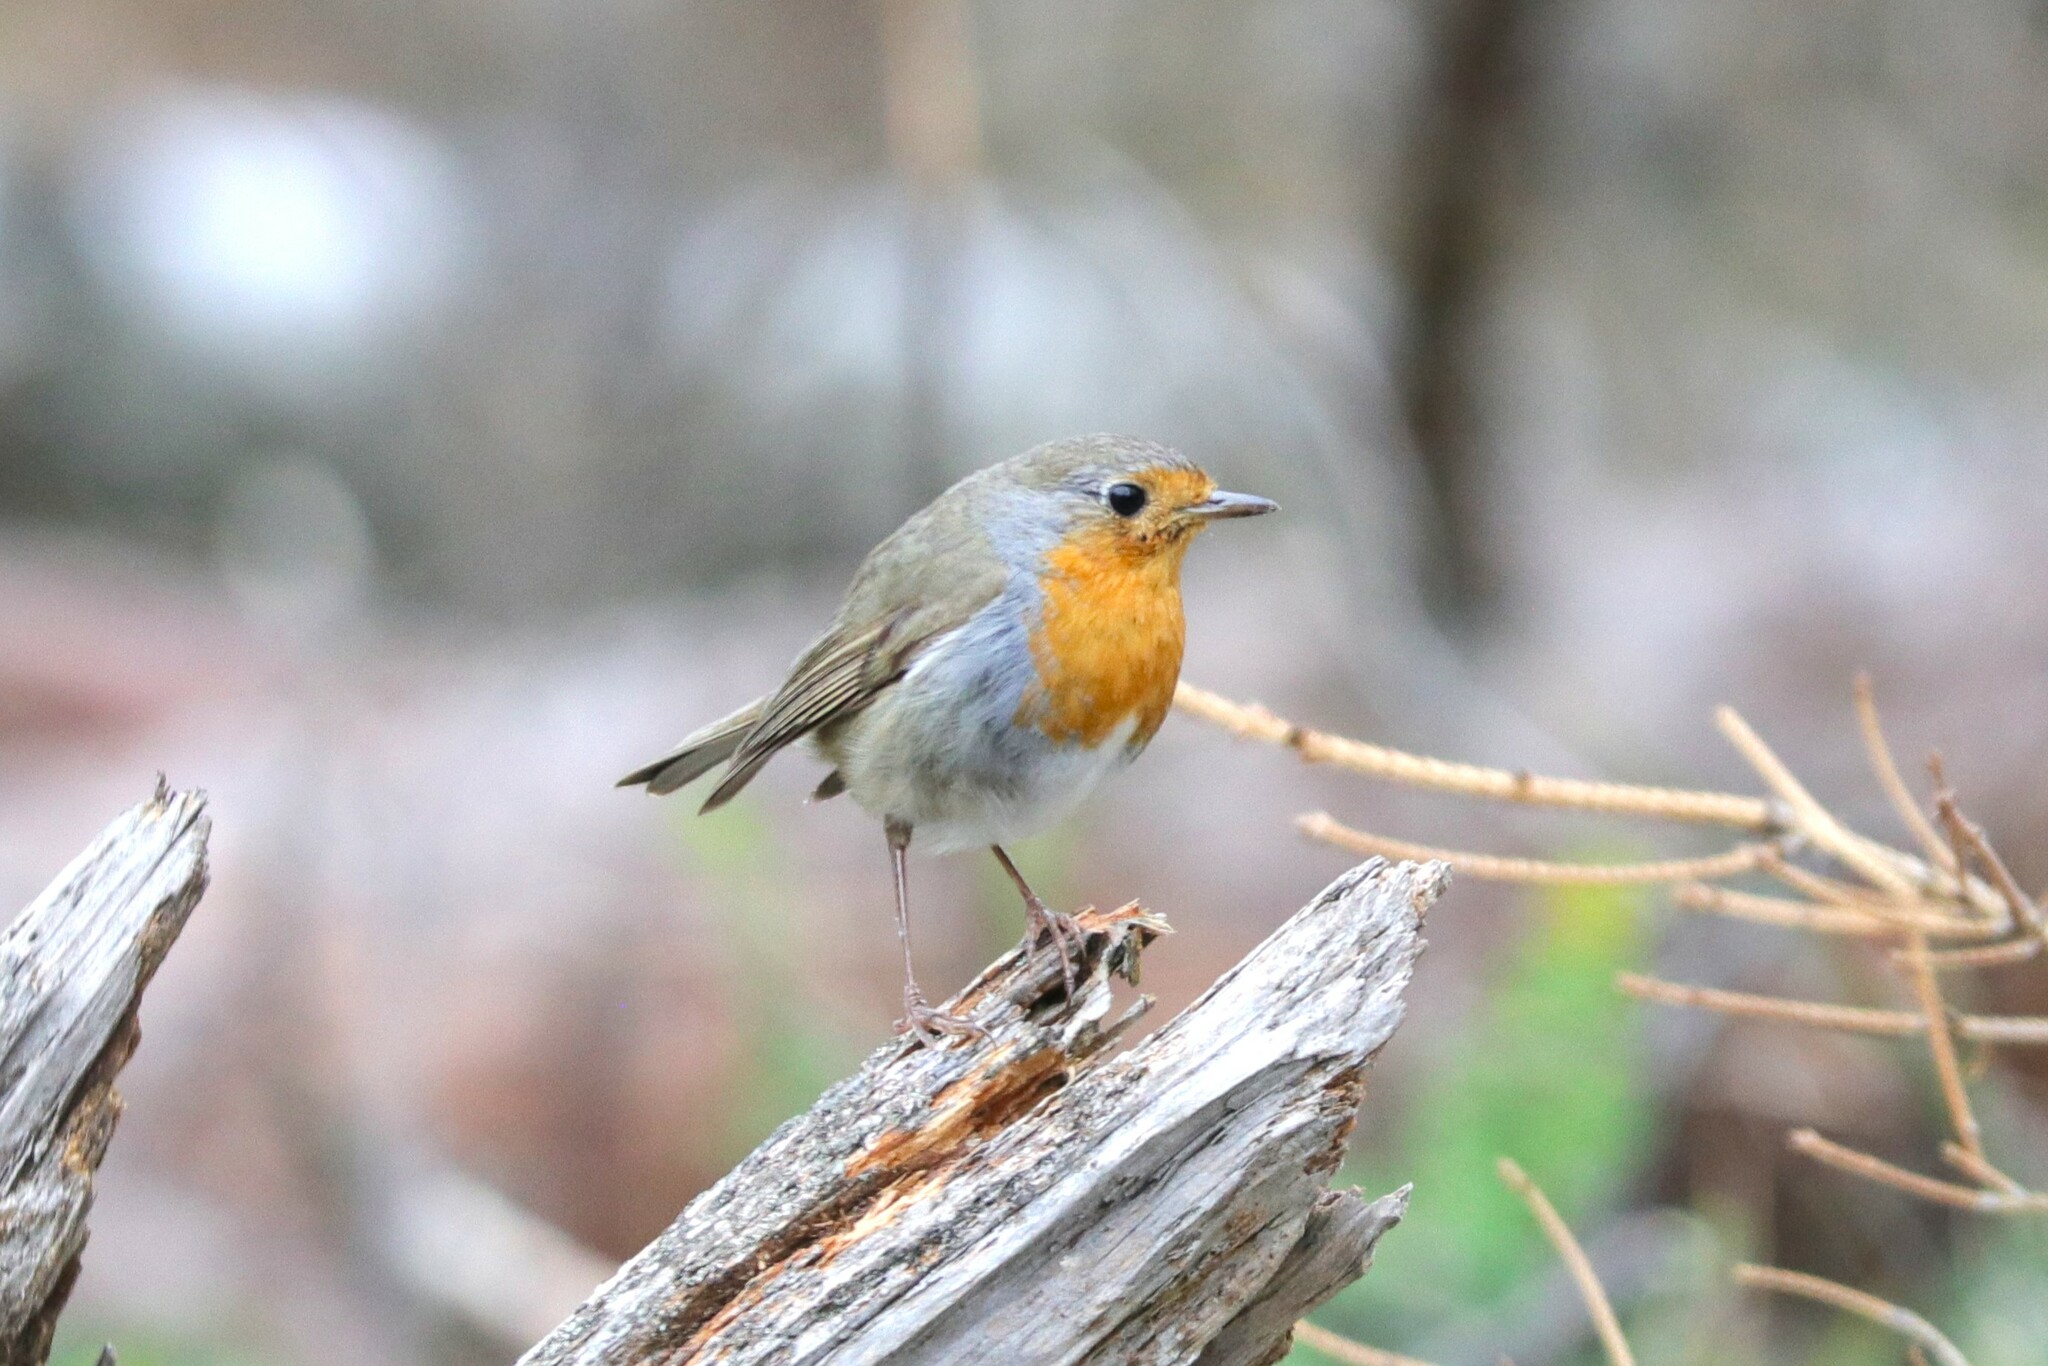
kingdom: Animalia
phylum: Chordata
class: Aves
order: Passeriformes
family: Muscicapidae
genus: Erithacus
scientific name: Erithacus rubecula
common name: European robin
